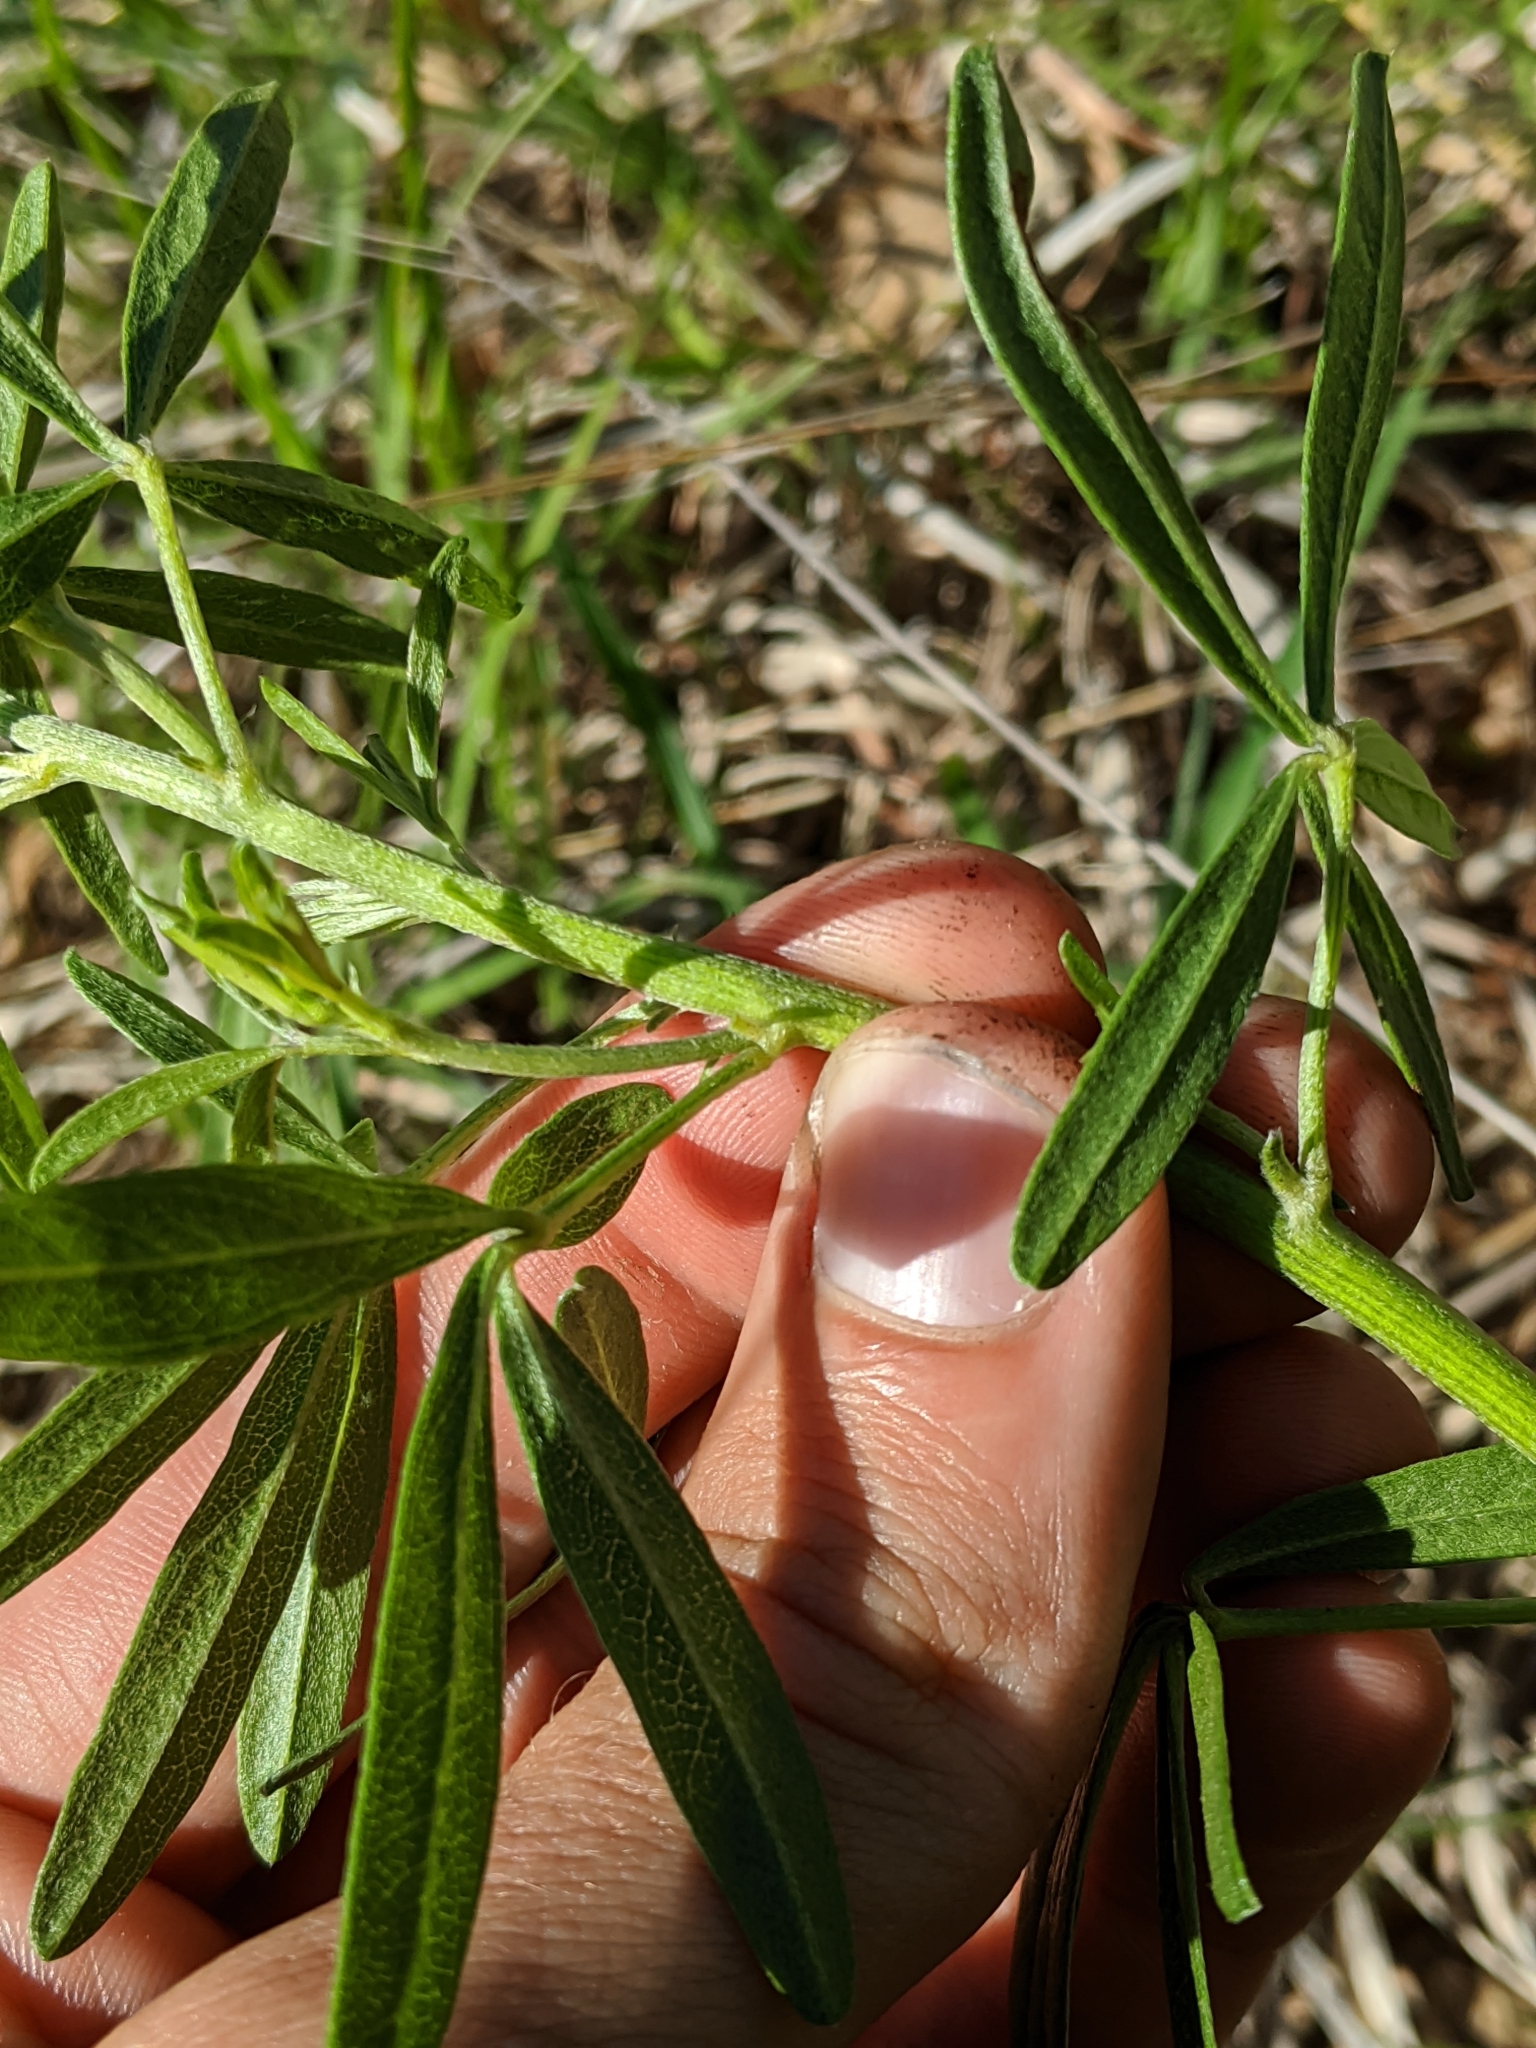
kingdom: Plantae
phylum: Tracheophyta
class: Magnoliopsida
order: Fabales
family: Fabaceae
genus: Pediomelum
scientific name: Pediomelum tenuiflorum
